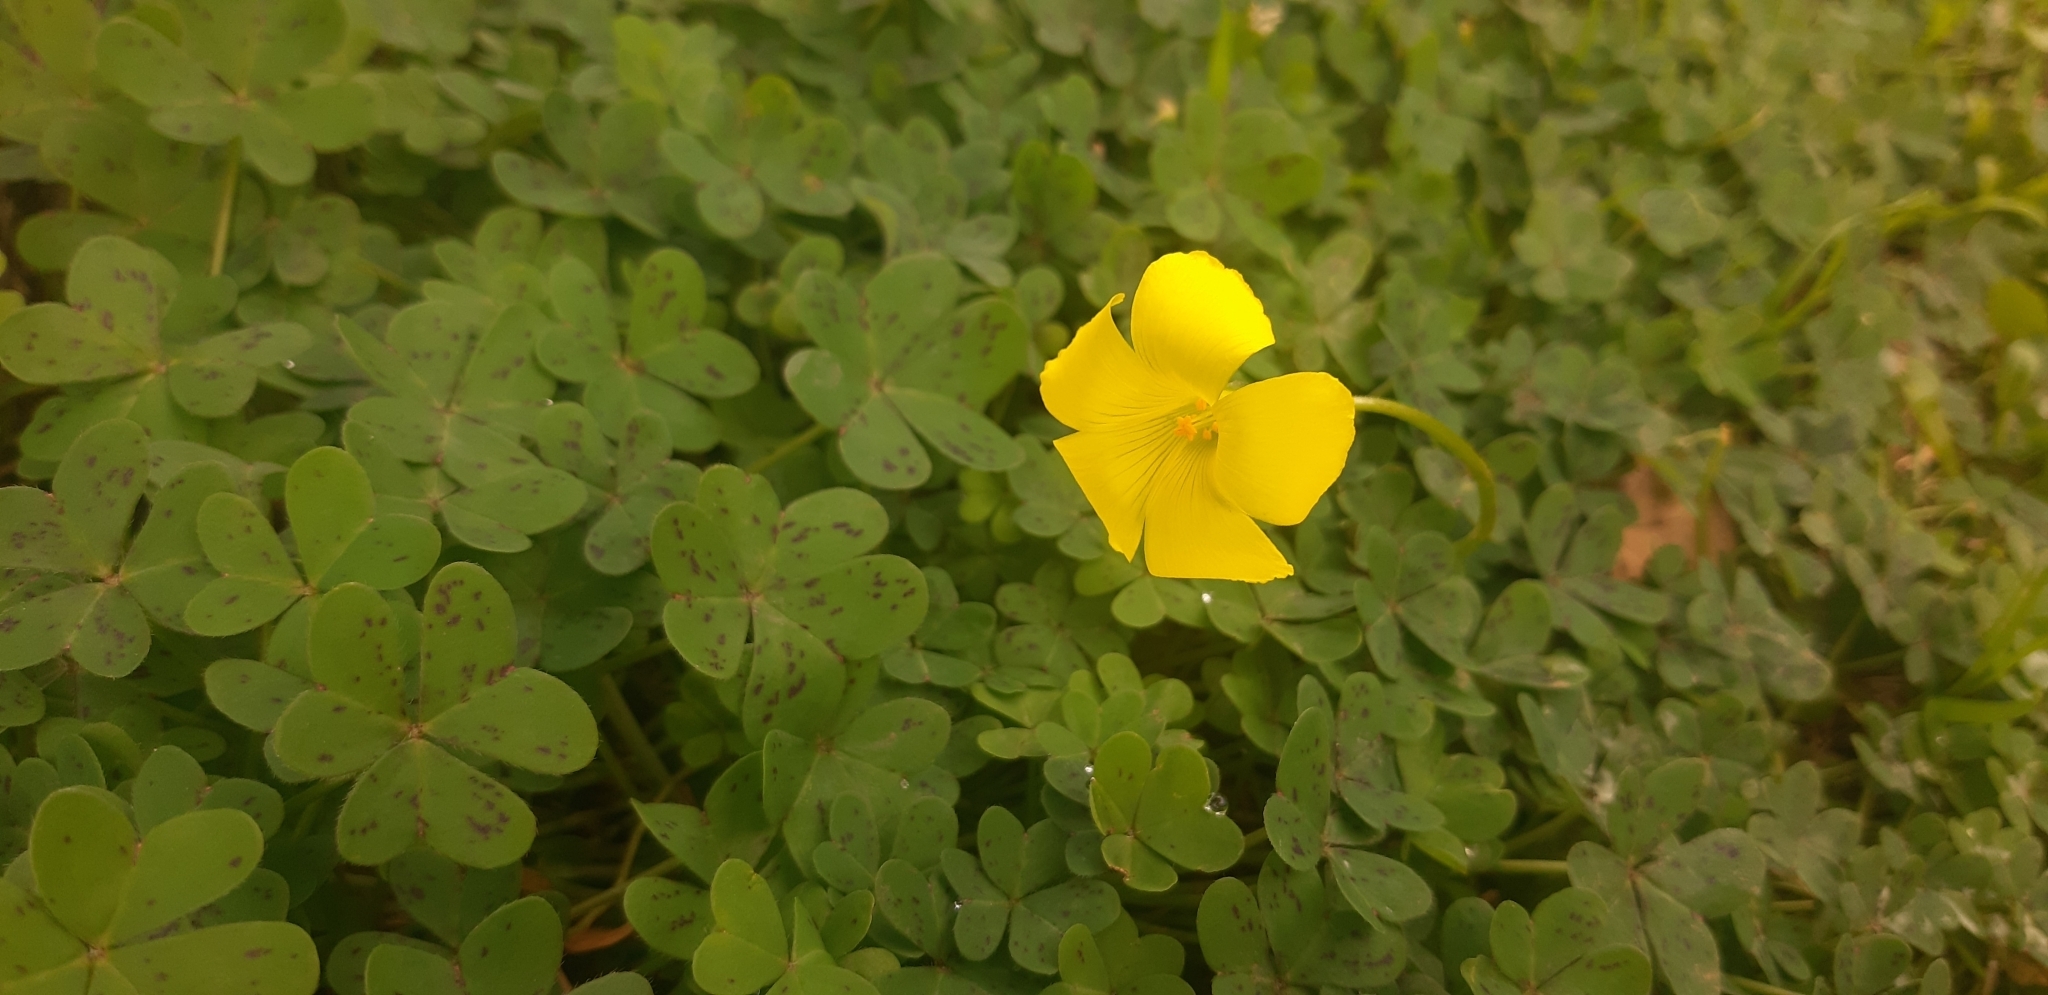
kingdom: Plantae
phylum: Tracheophyta
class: Magnoliopsida
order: Oxalidales
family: Oxalidaceae
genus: Oxalis
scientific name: Oxalis pes-caprae
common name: Bermuda-buttercup
